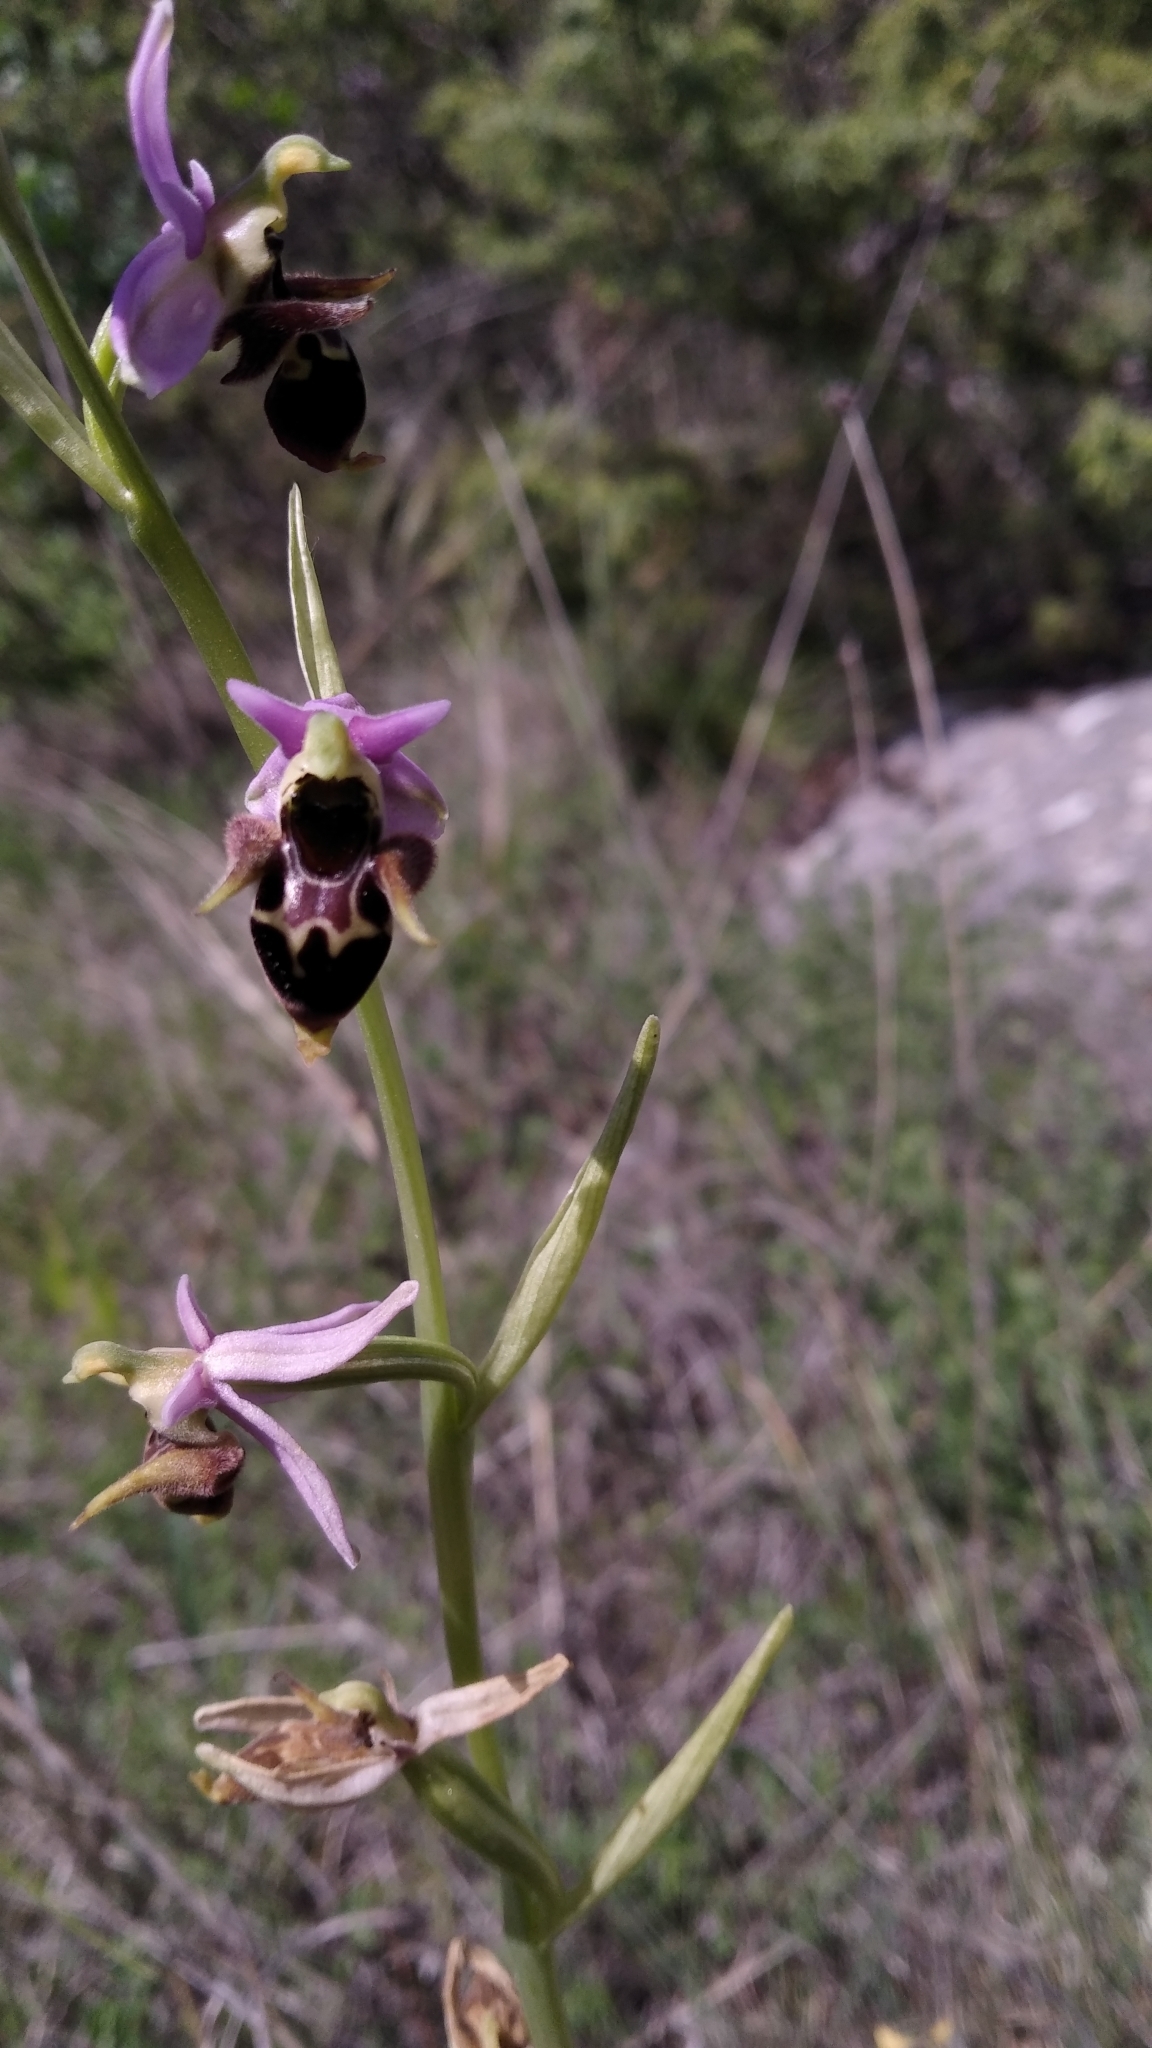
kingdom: Plantae
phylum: Tracheophyta
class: Liliopsida
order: Asparagales
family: Orchidaceae
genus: Ophrys
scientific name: Ophrys
